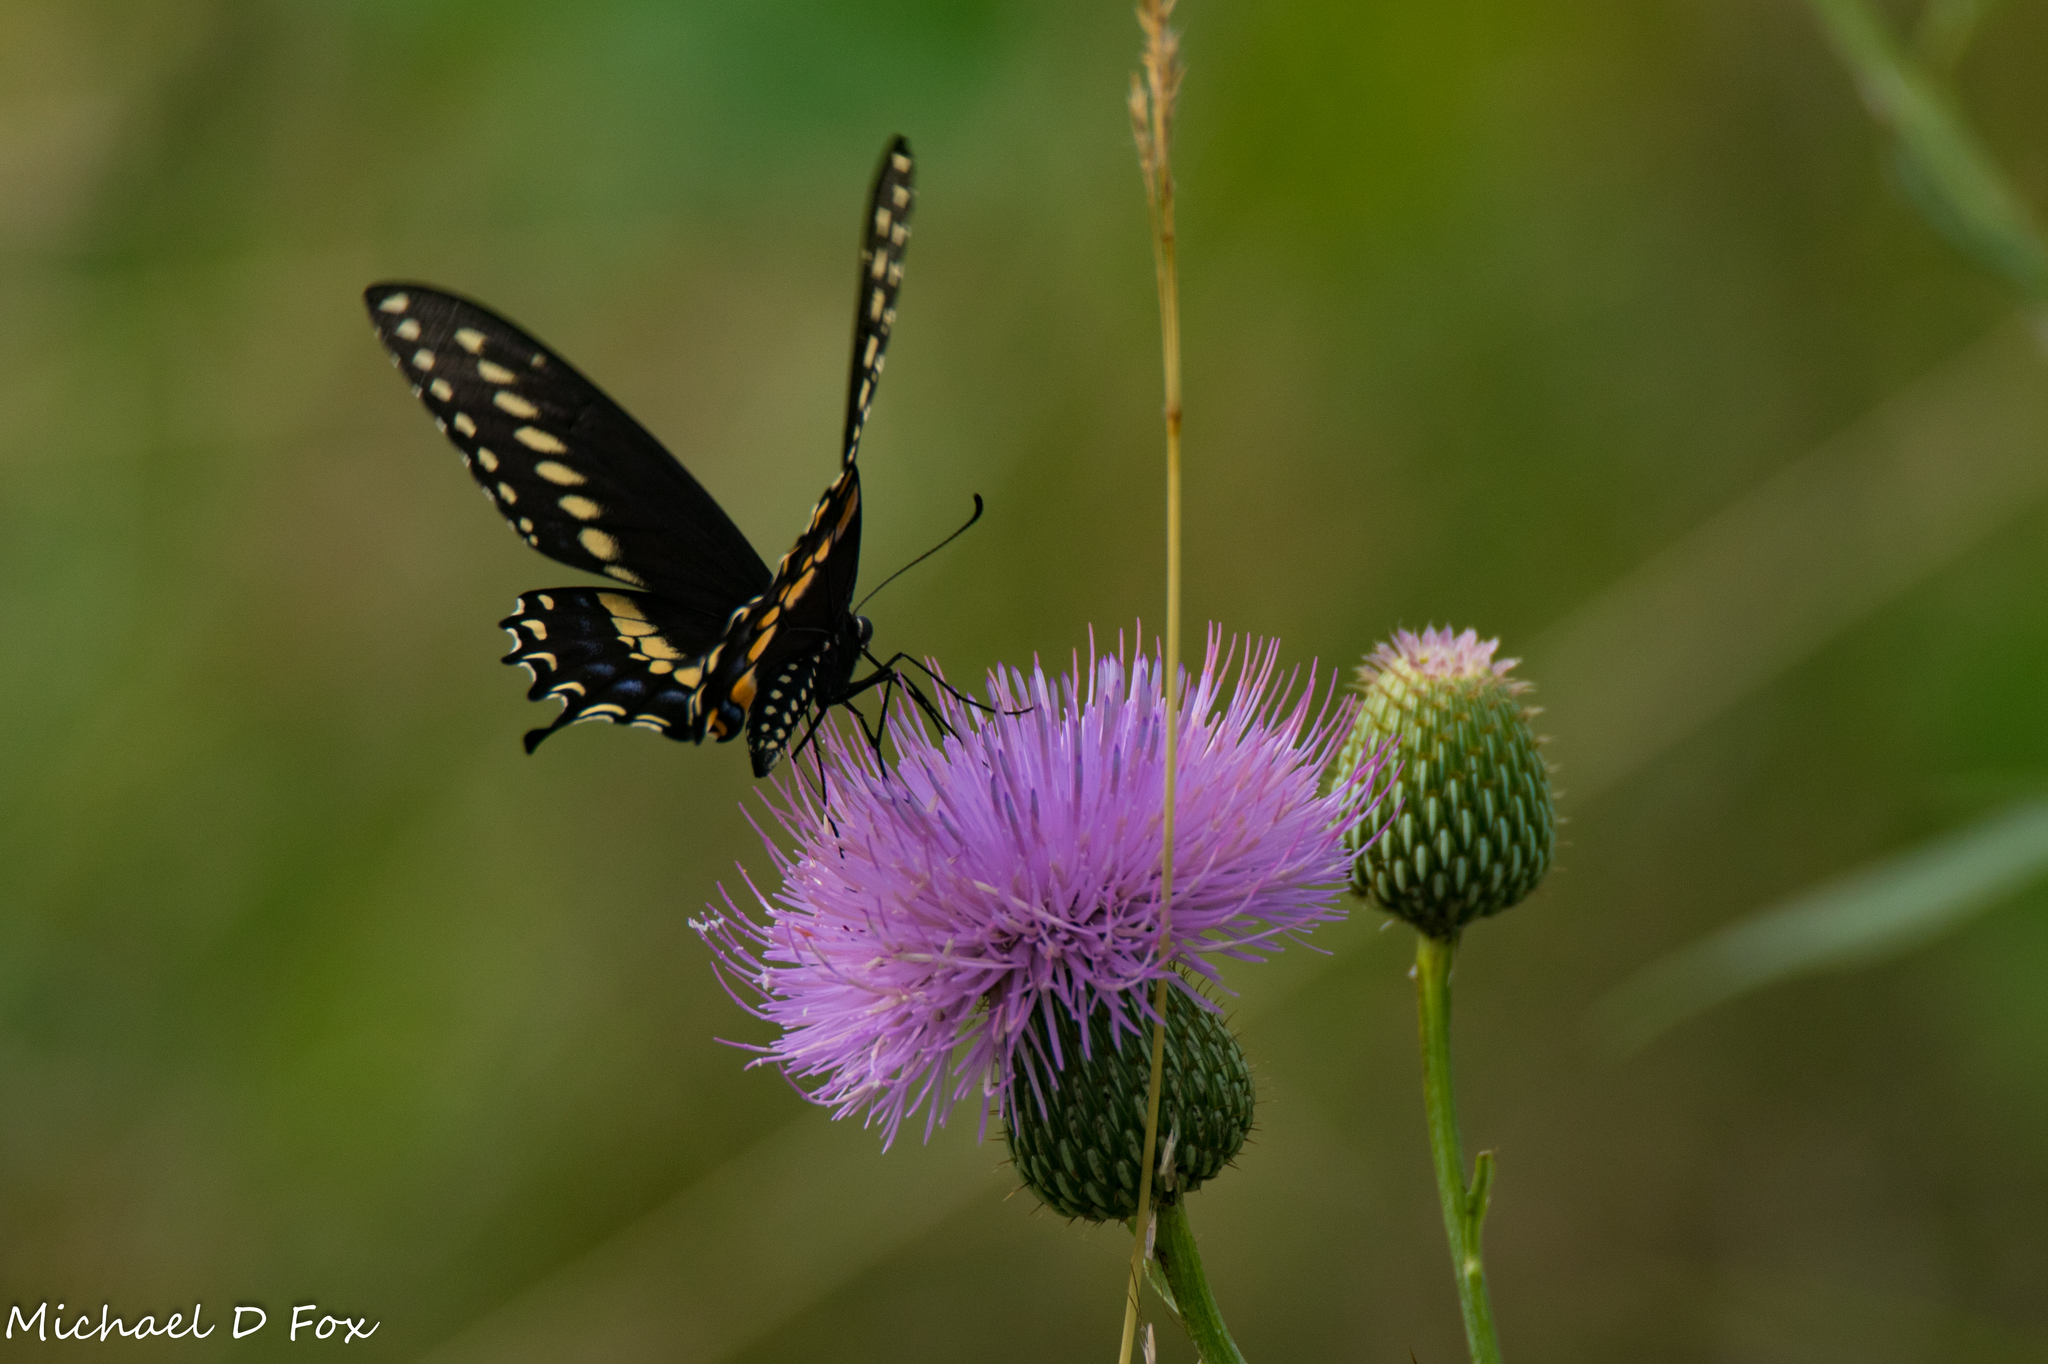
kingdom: Animalia
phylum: Arthropoda
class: Insecta
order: Lepidoptera
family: Papilionidae
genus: Papilio
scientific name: Papilio polyxenes
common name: Black swallowtail
